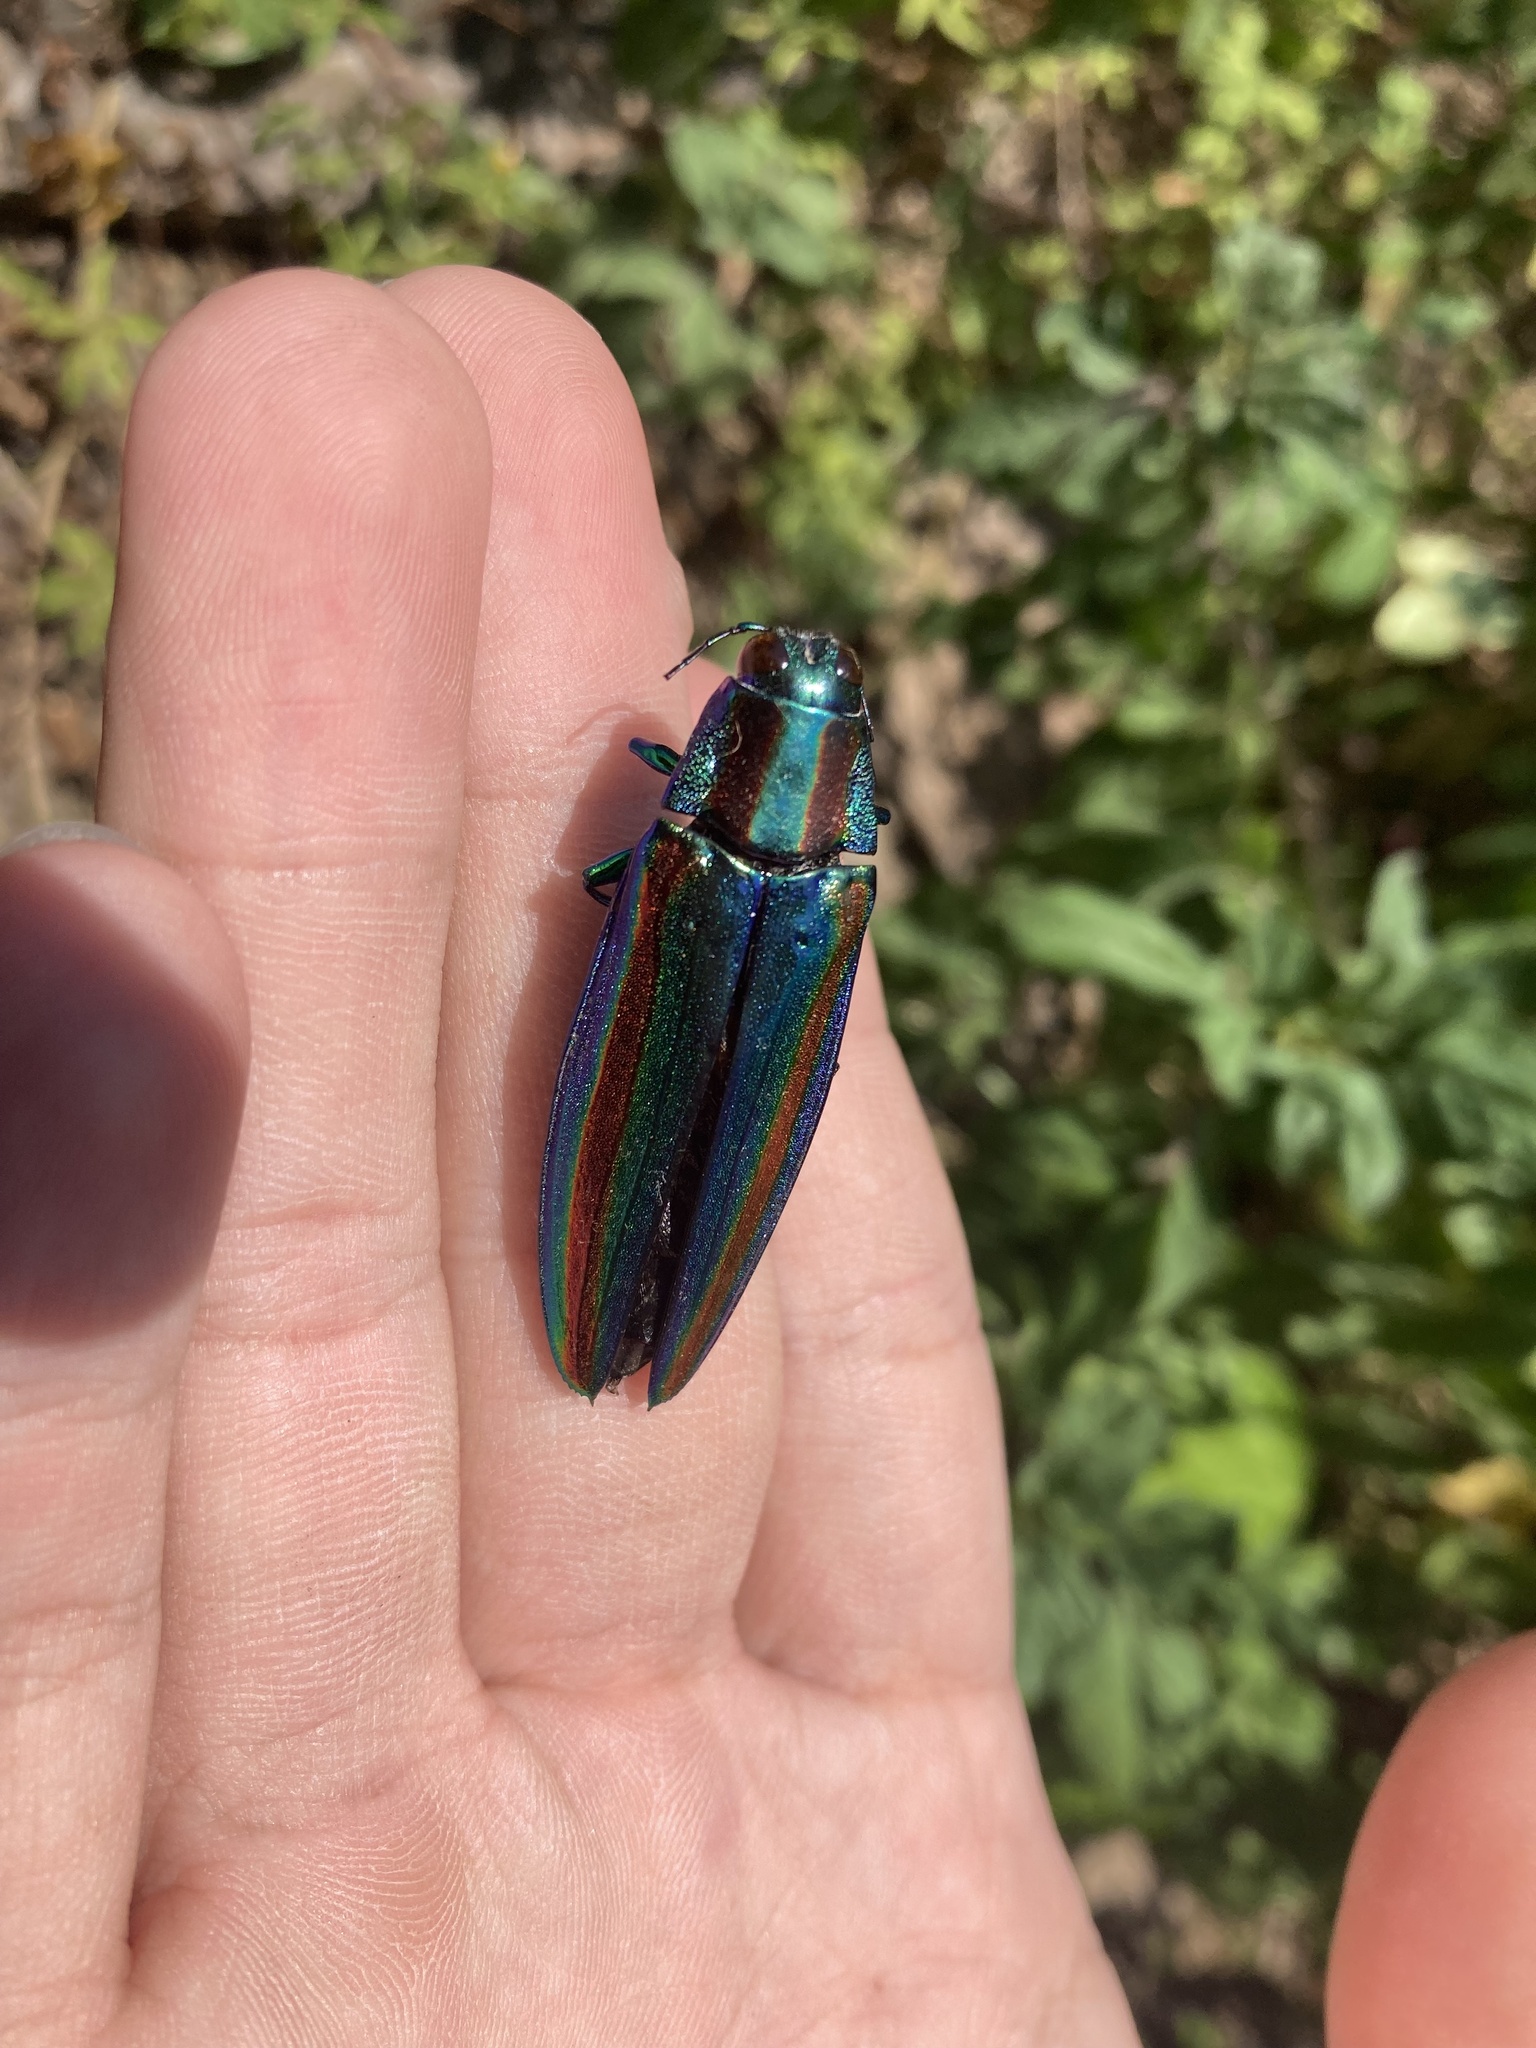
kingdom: Animalia
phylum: Arthropoda
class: Insecta
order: Coleoptera
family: Buprestidae
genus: Chrysochroa
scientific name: Chrysochroa fulgidissima
